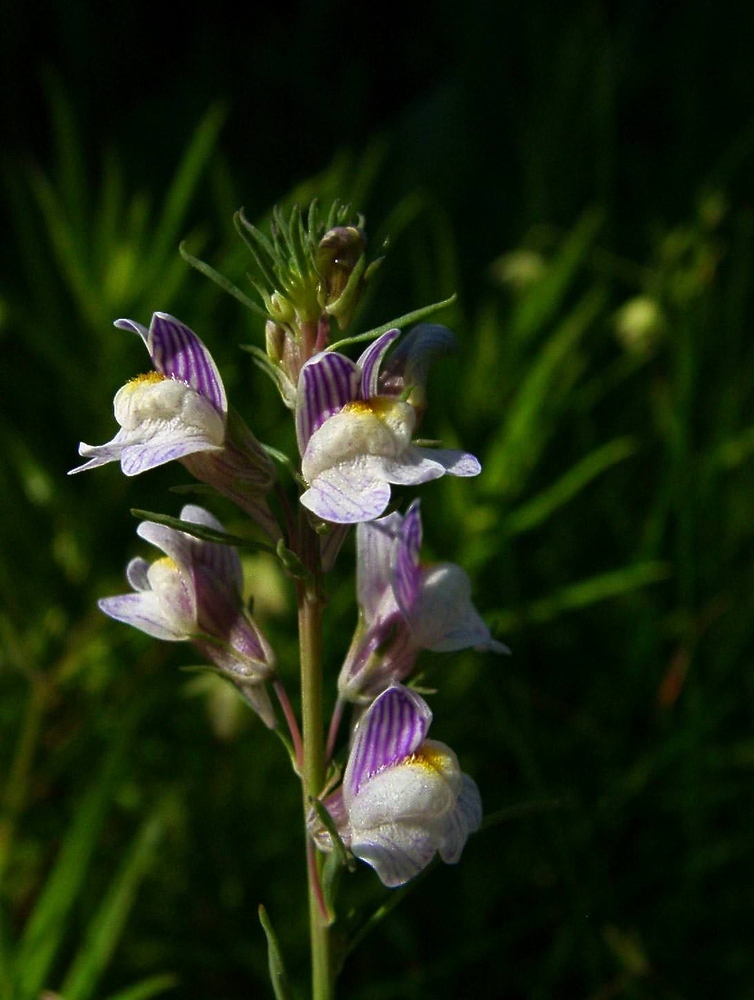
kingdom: Plantae
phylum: Tracheophyta
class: Magnoliopsida
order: Lamiales
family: Plantaginaceae
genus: Linaria
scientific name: Linaria repens
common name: Pale toadflax
